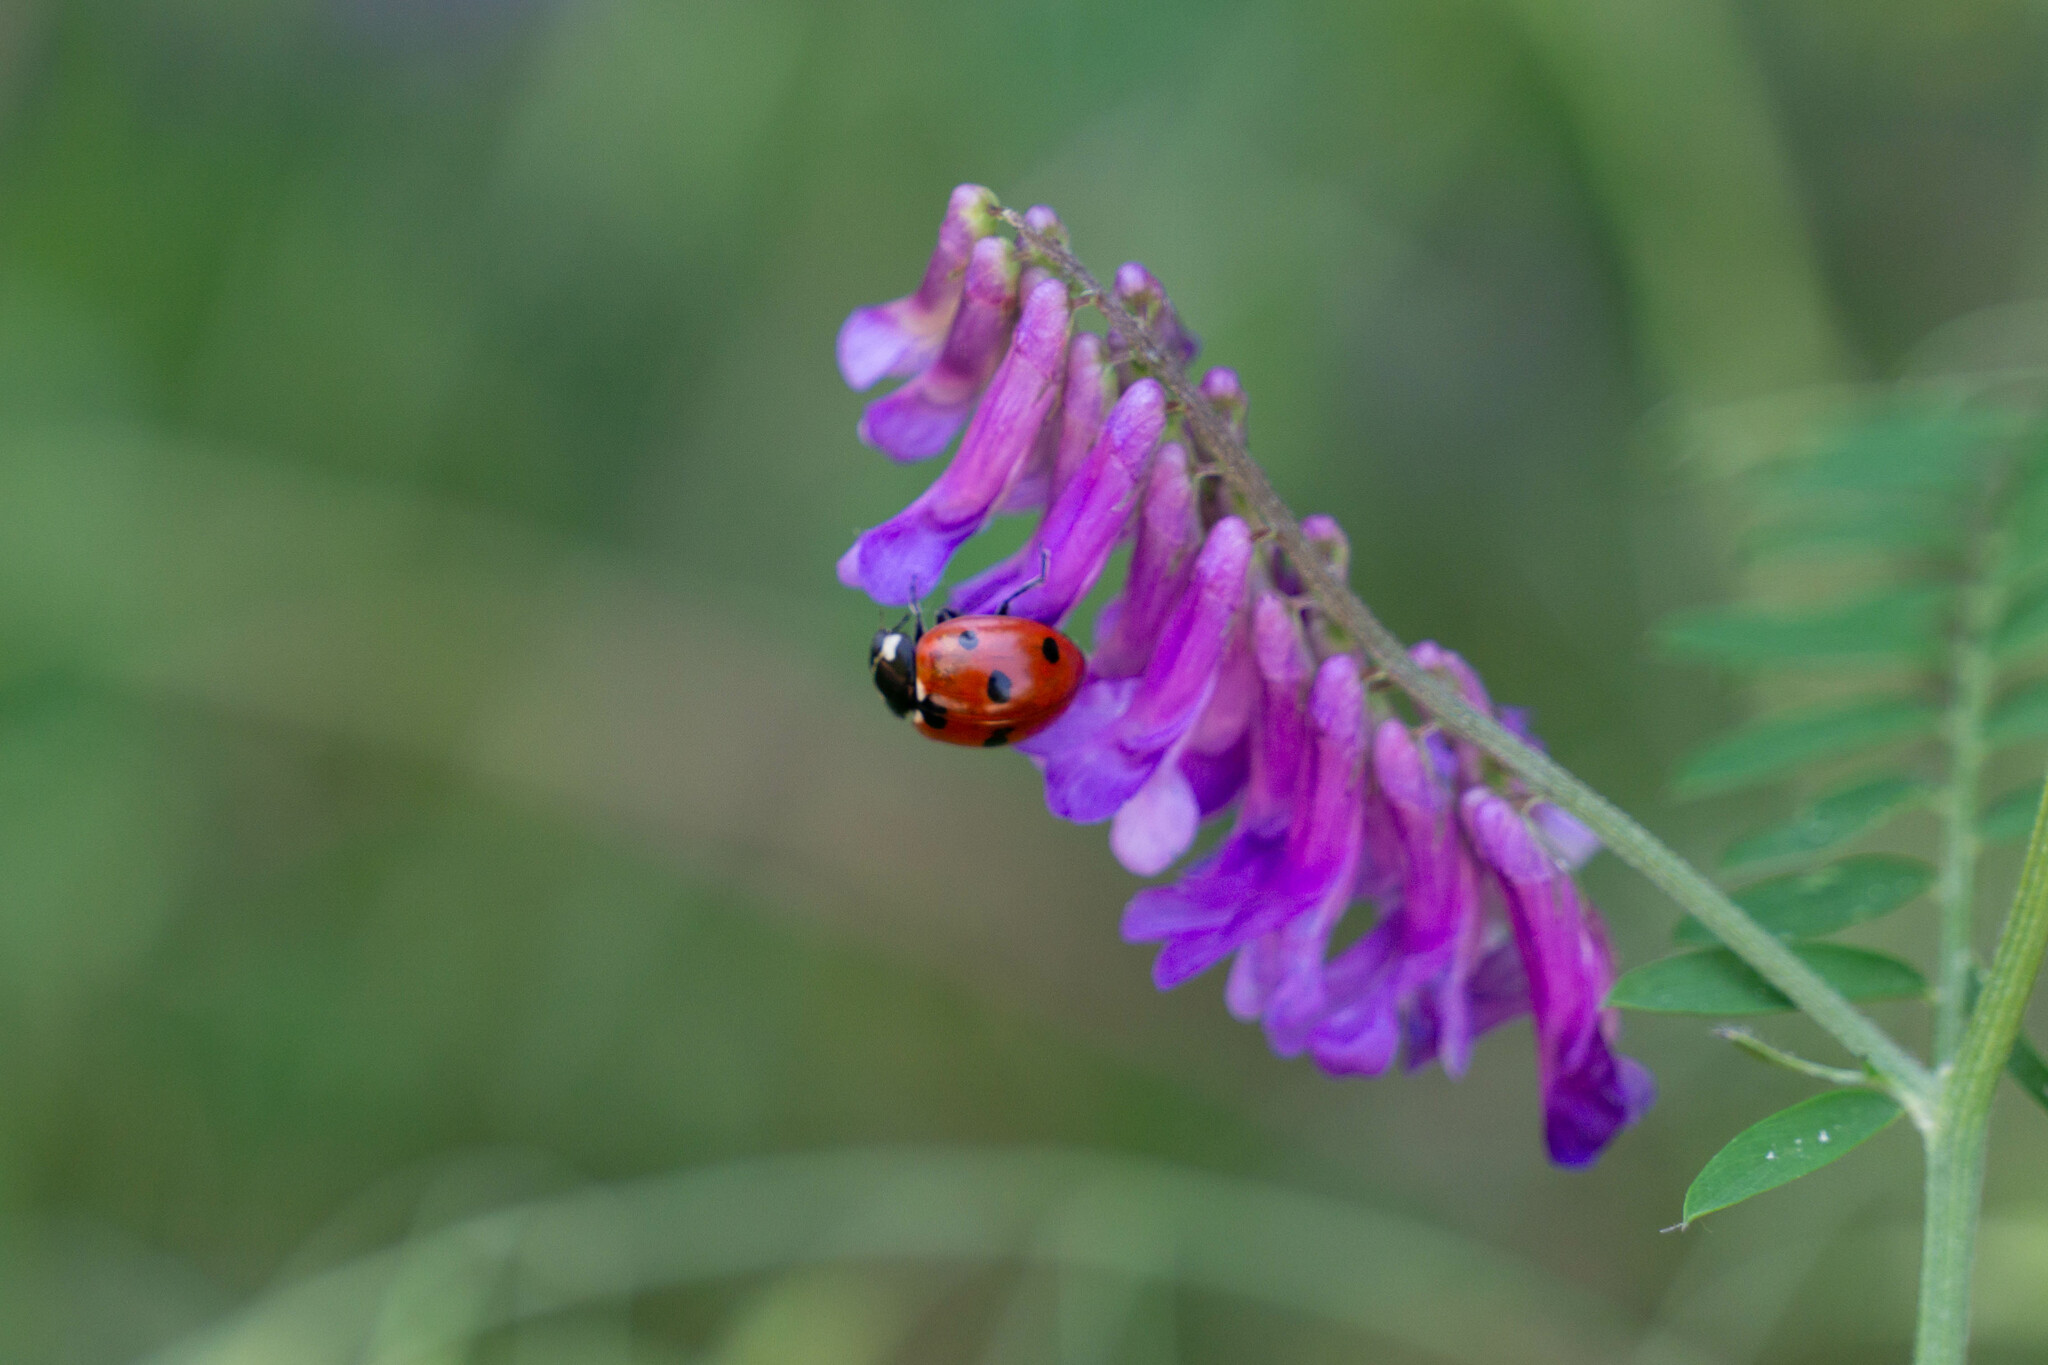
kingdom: Animalia
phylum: Arthropoda
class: Insecta
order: Coleoptera
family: Coccinellidae
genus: Coccinella
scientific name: Coccinella septempunctata
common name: Sevenspotted lady beetle
